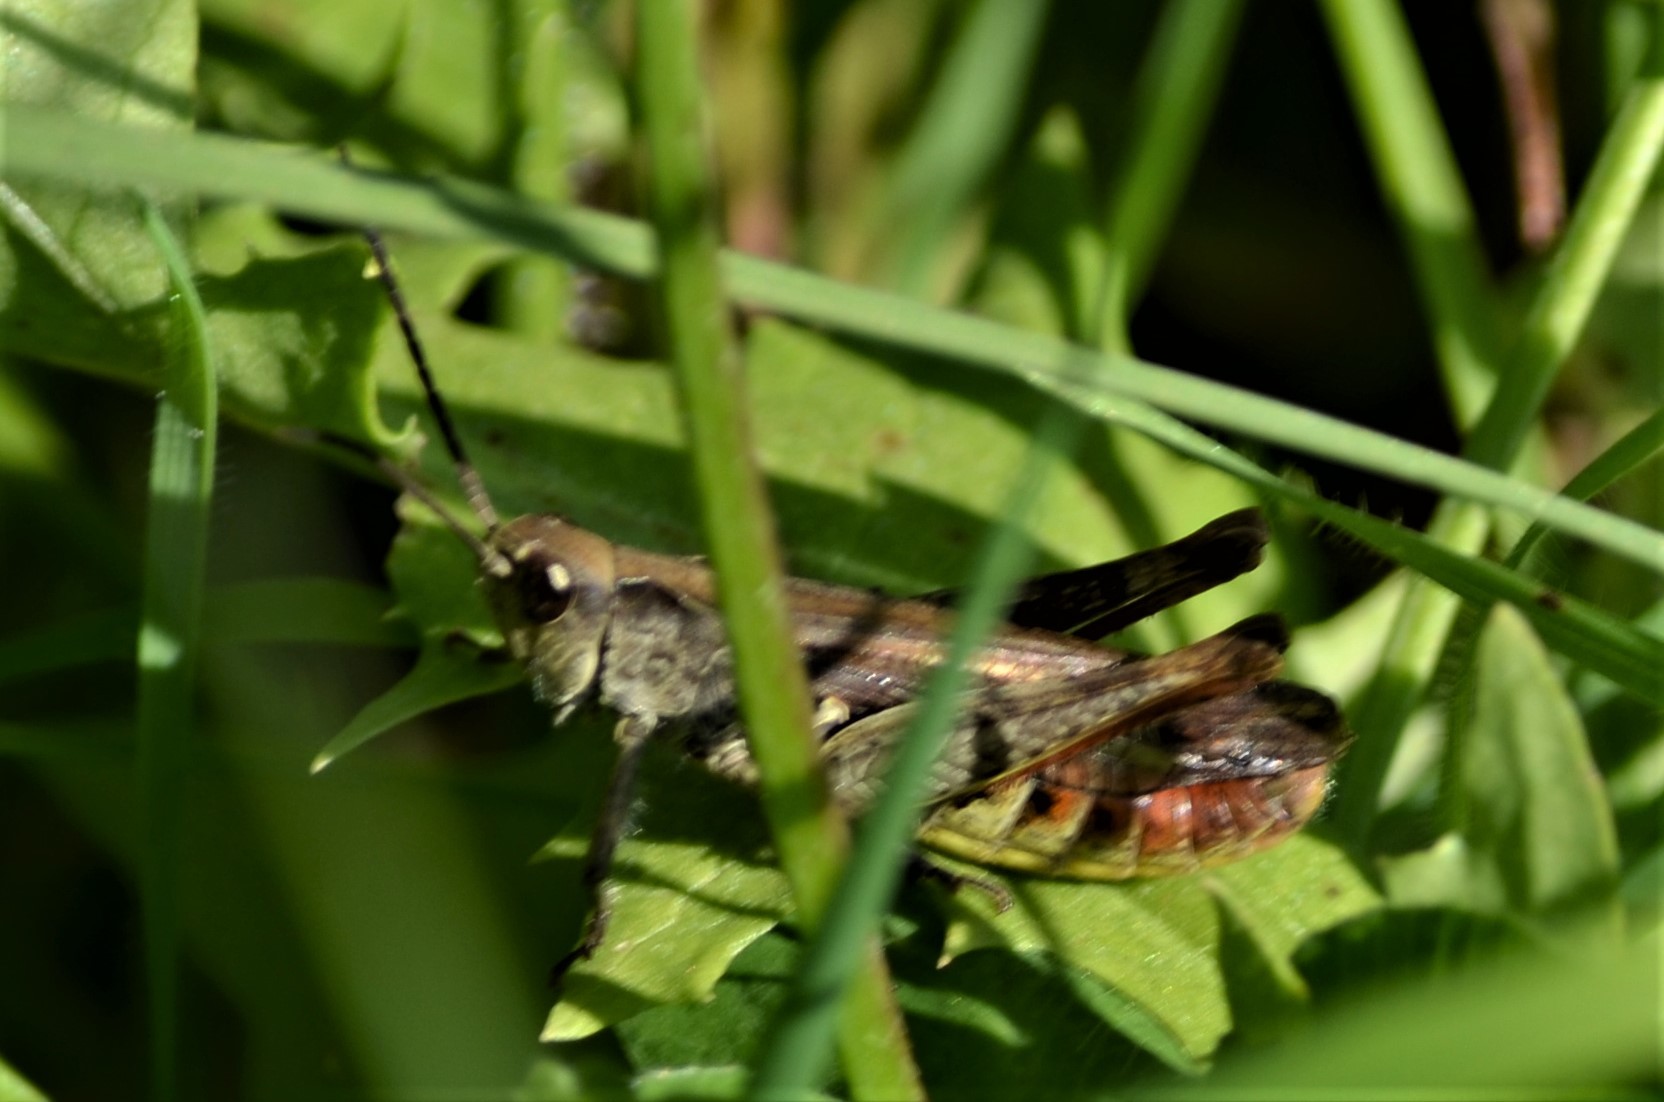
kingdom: Animalia
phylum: Arthropoda
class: Insecta
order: Orthoptera
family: Acrididae
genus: Chorthippus
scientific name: Chorthippus biguttulus
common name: Bow-winged grasshopper
